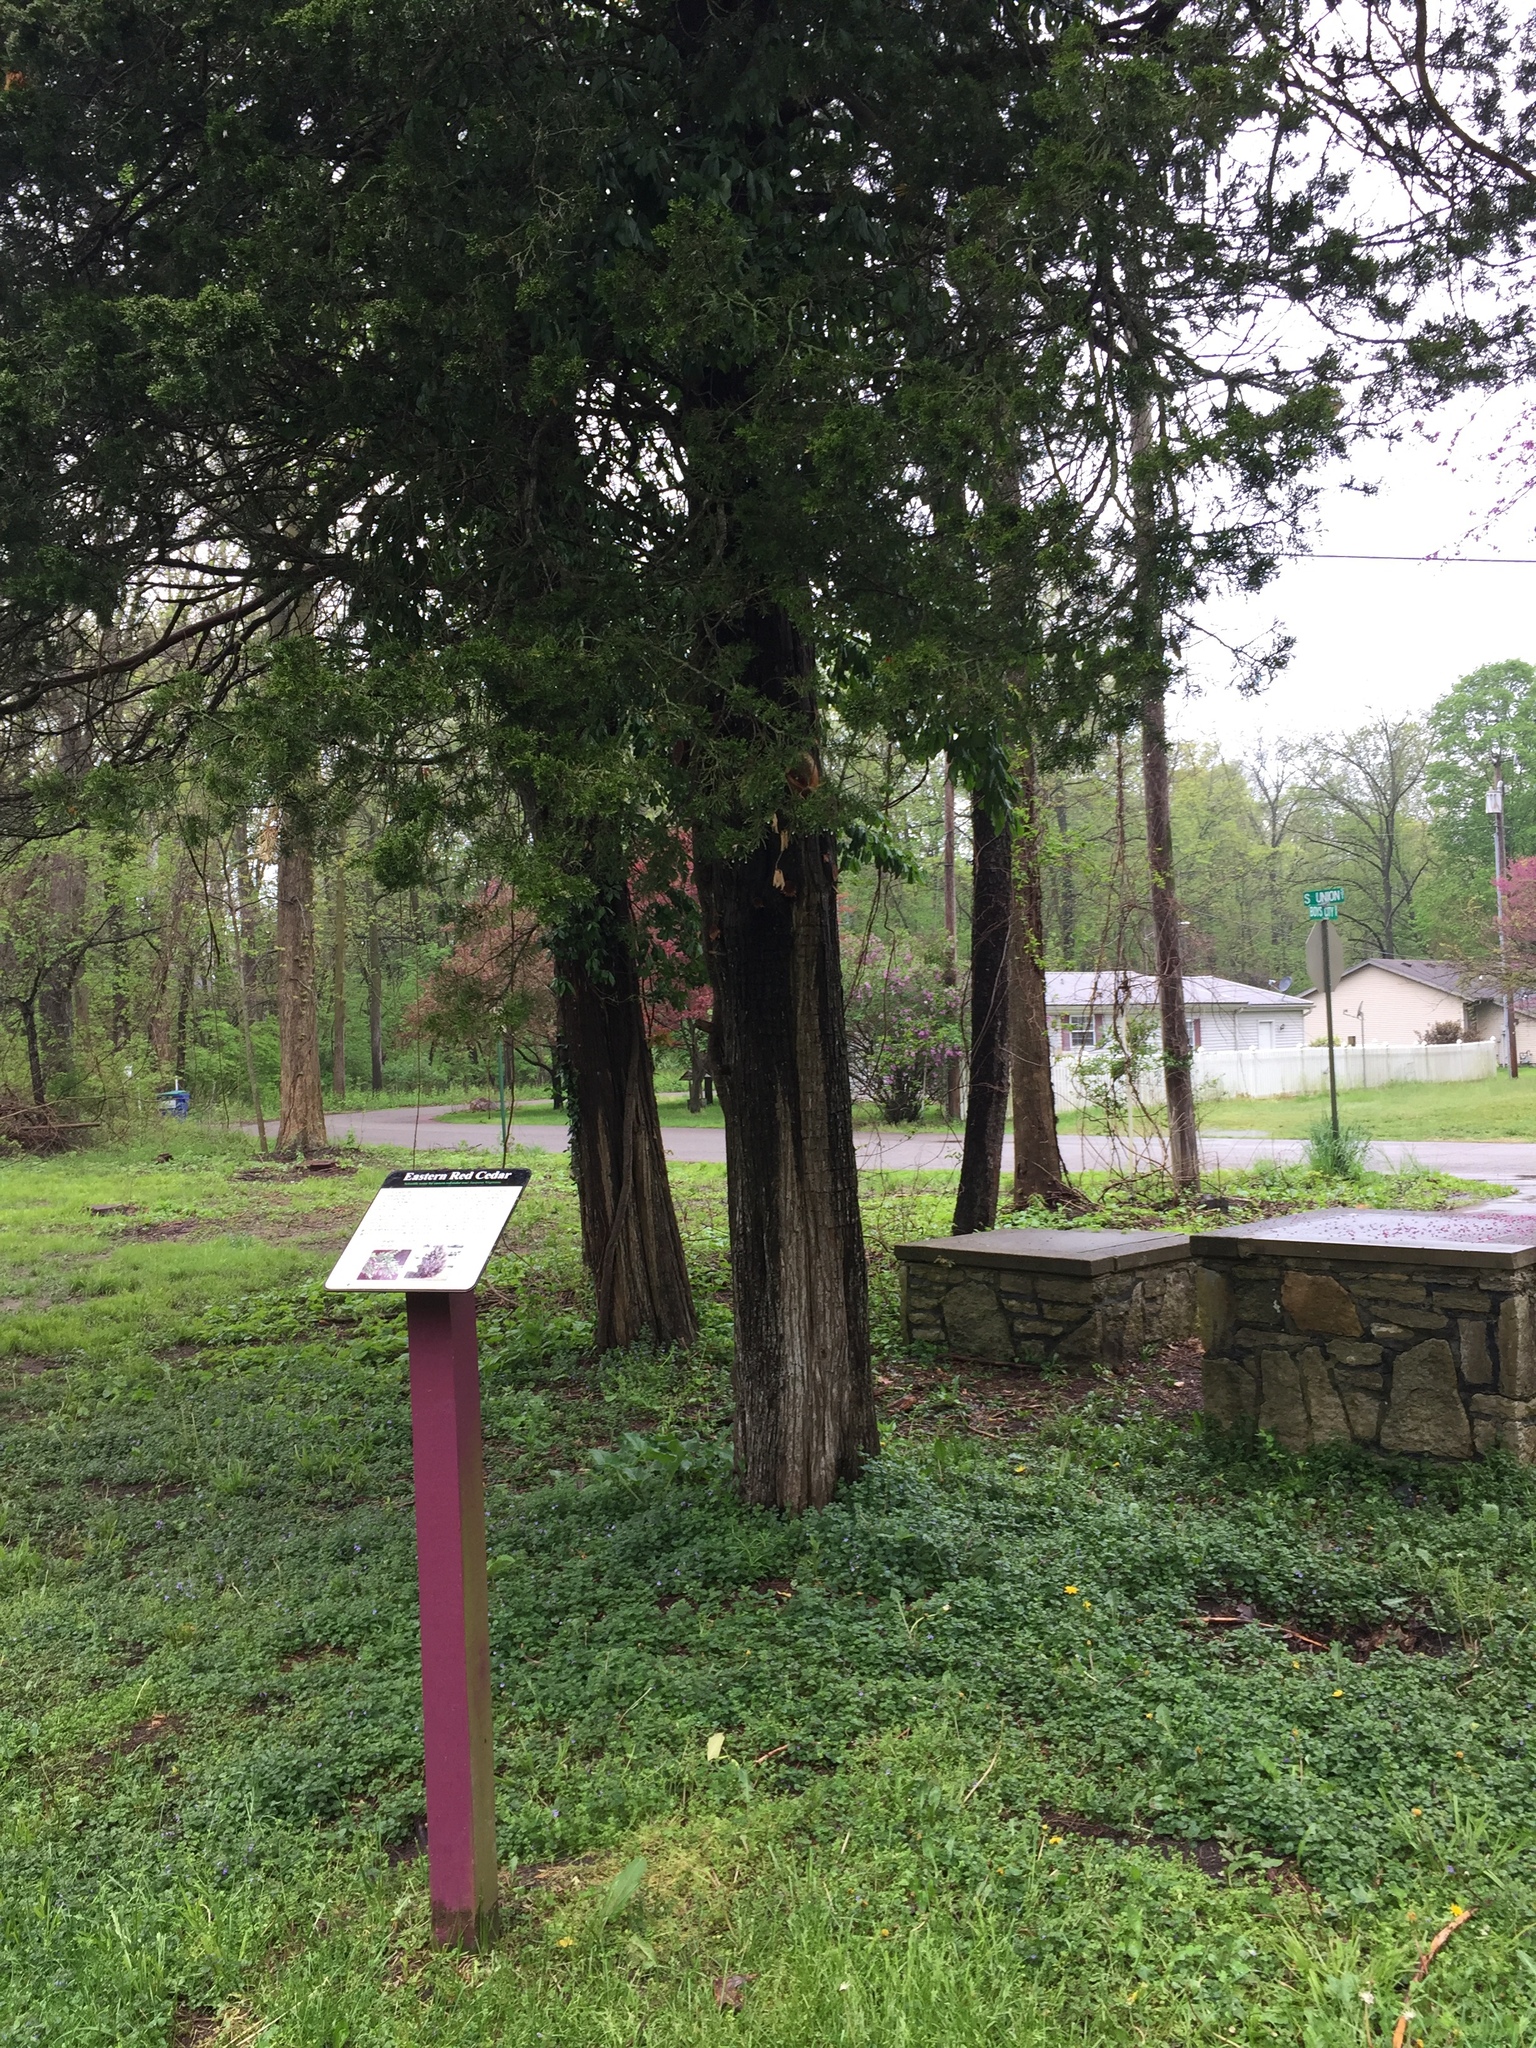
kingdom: Plantae
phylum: Tracheophyta
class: Pinopsida
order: Pinales
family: Cupressaceae
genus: Juniperus
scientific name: Juniperus virginiana
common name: Red juniper
